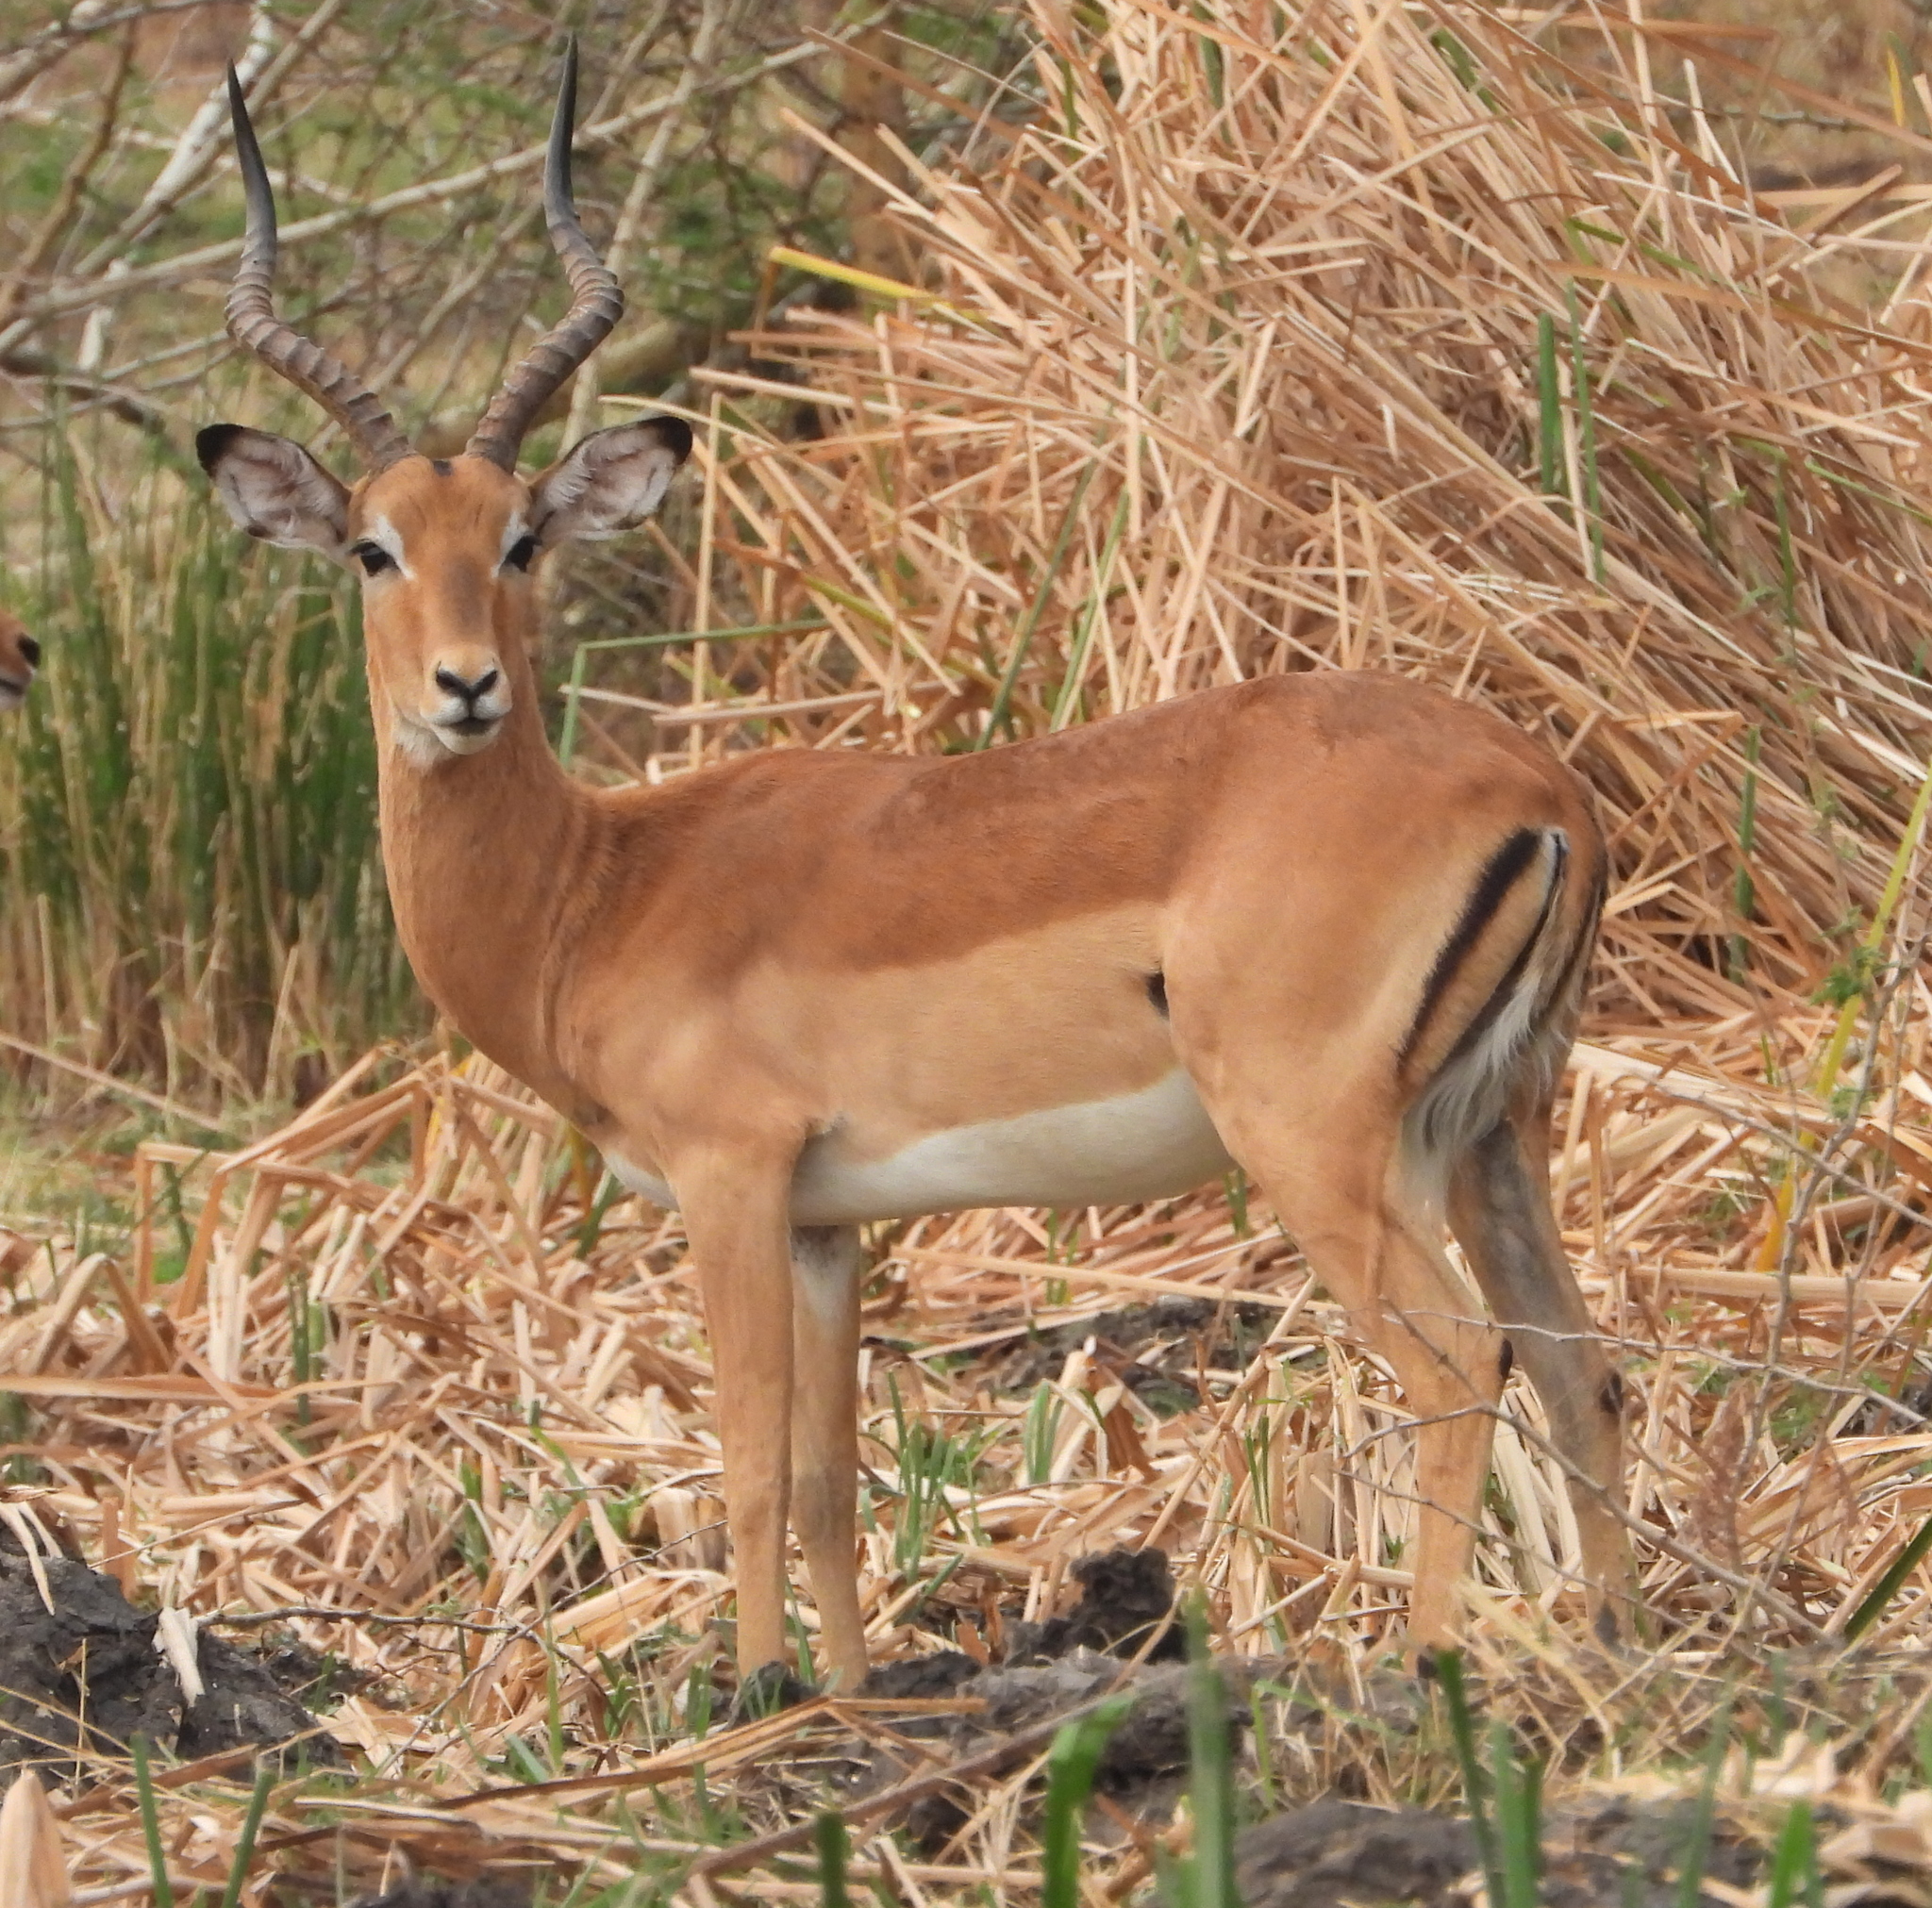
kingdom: Animalia
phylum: Chordata
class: Mammalia
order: Artiodactyla
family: Bovidae
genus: Aepyceros
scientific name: Aepyceros melampus
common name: Impala
